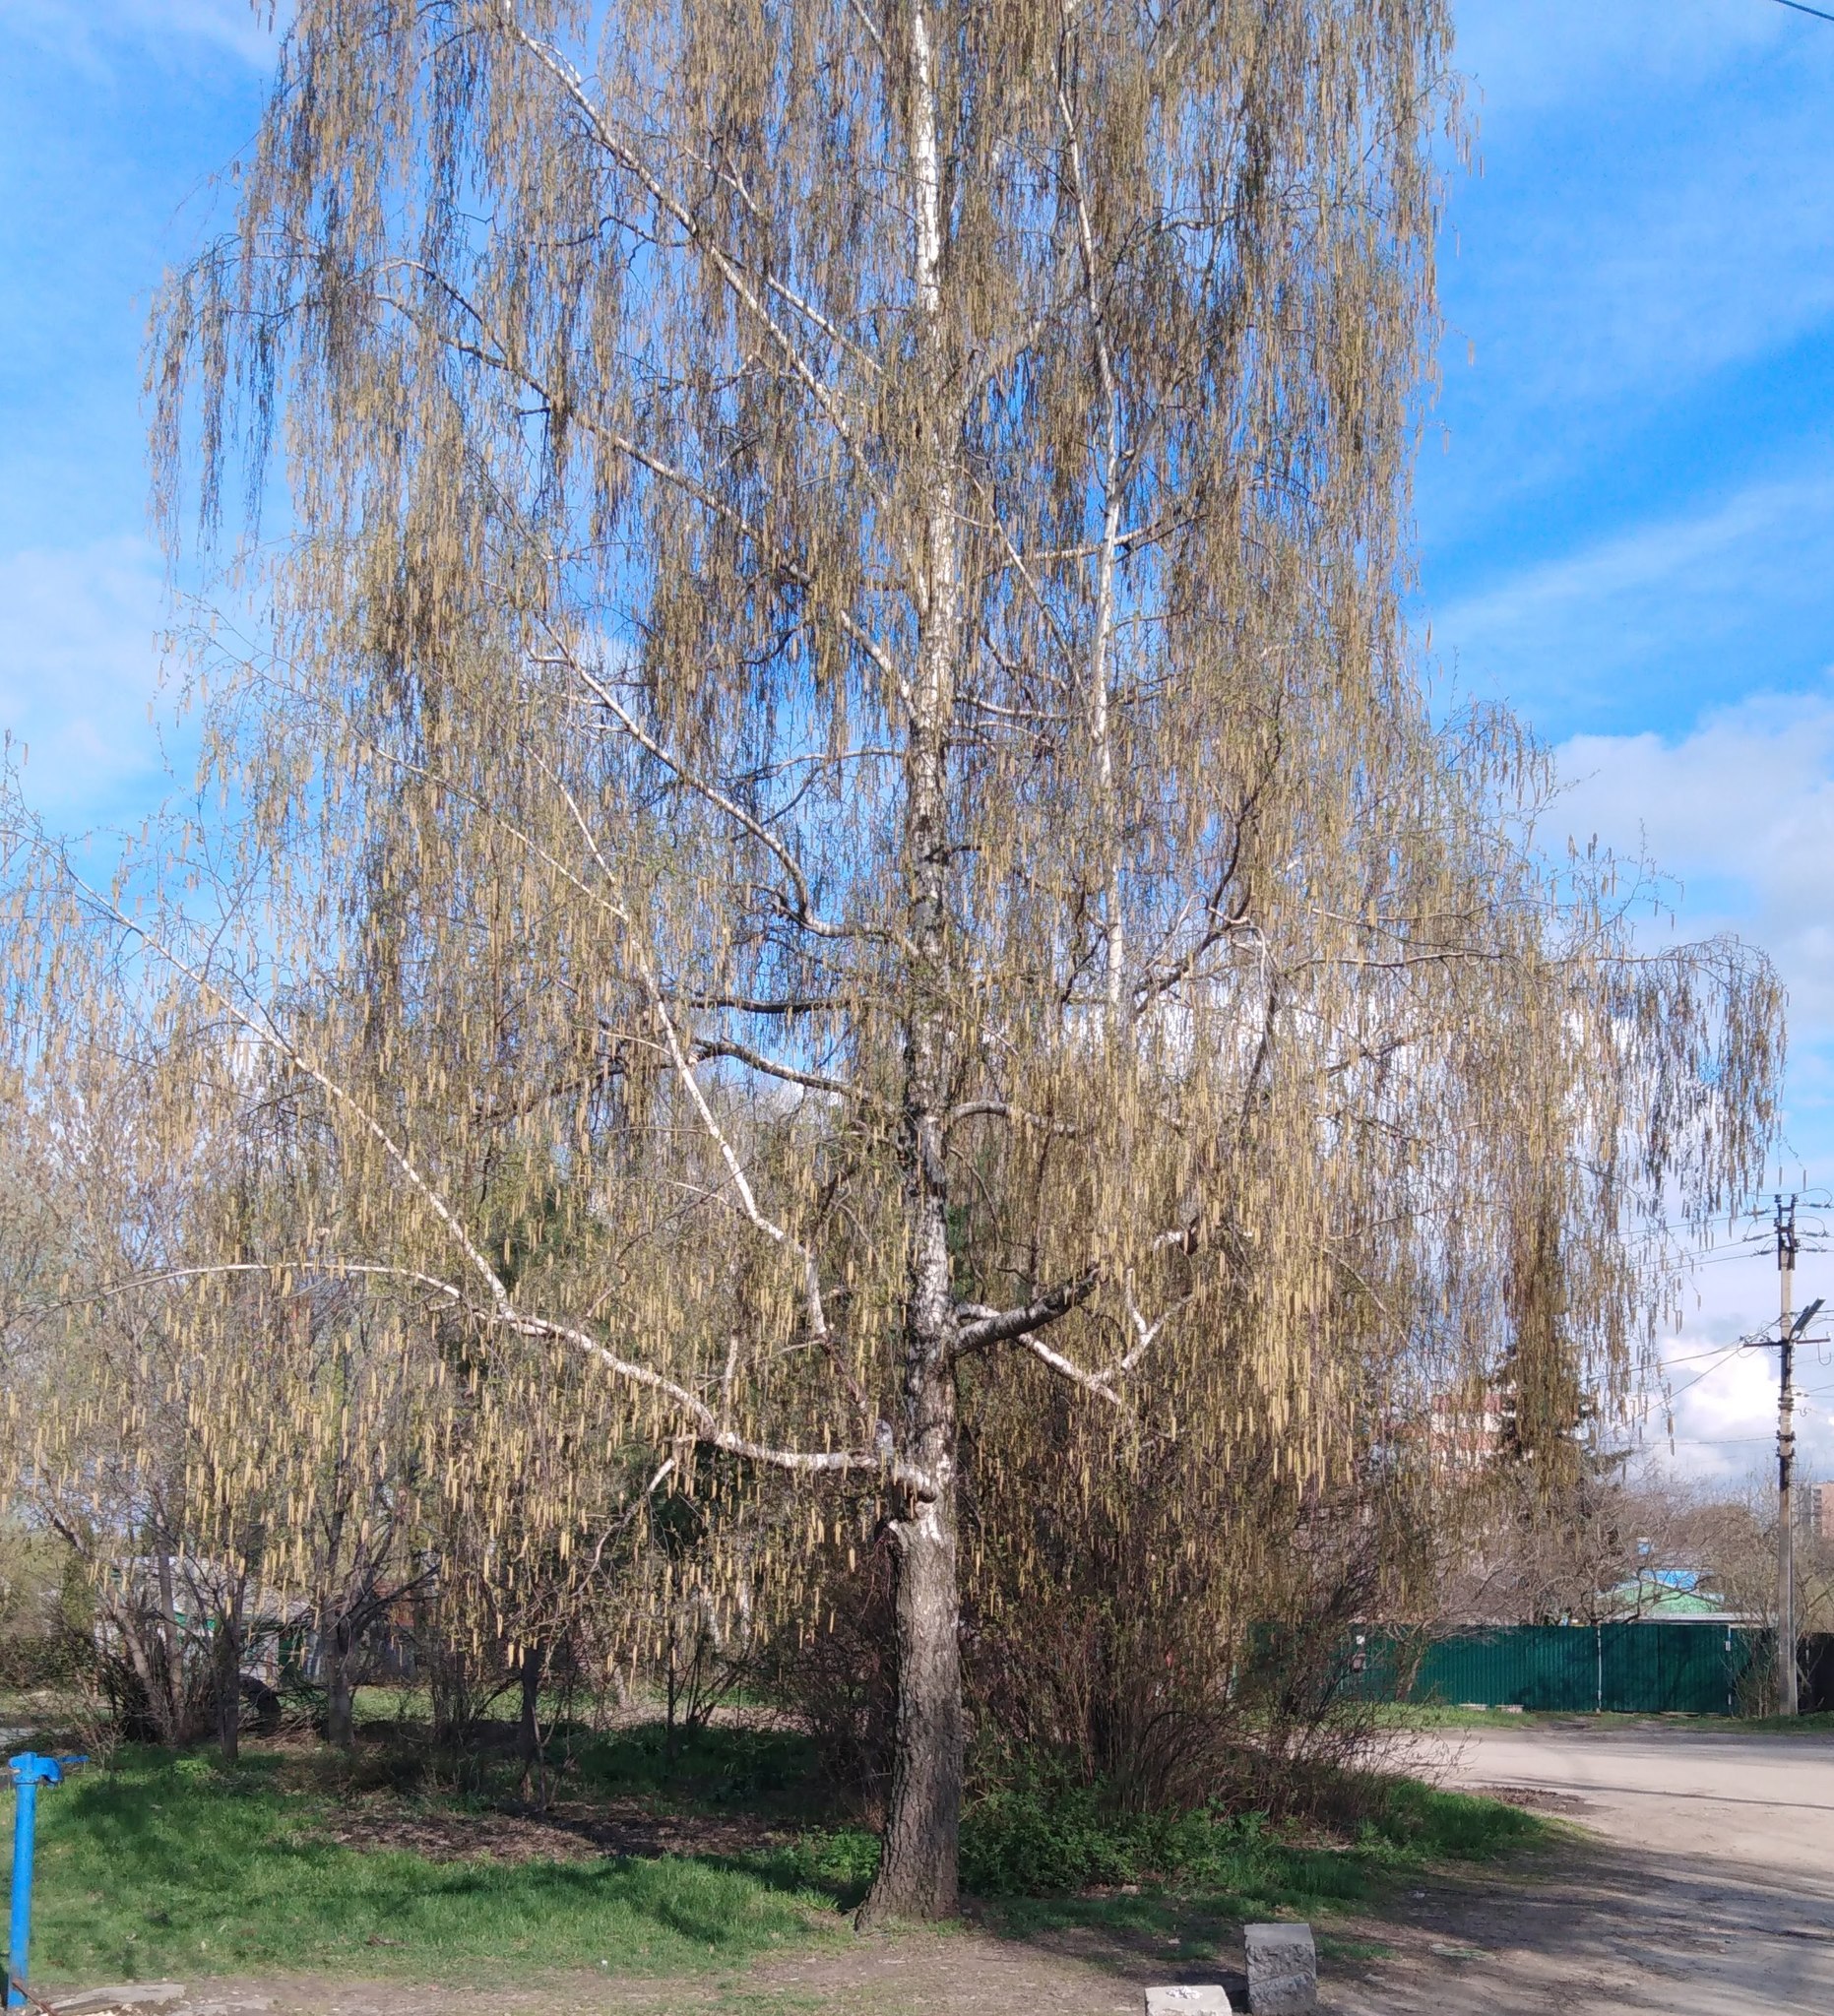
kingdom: Plantae
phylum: Tracheophyta
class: Magnoliopsida
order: Fagales
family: Betulaceae
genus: Betula
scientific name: Betula pendula
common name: Silver birch
